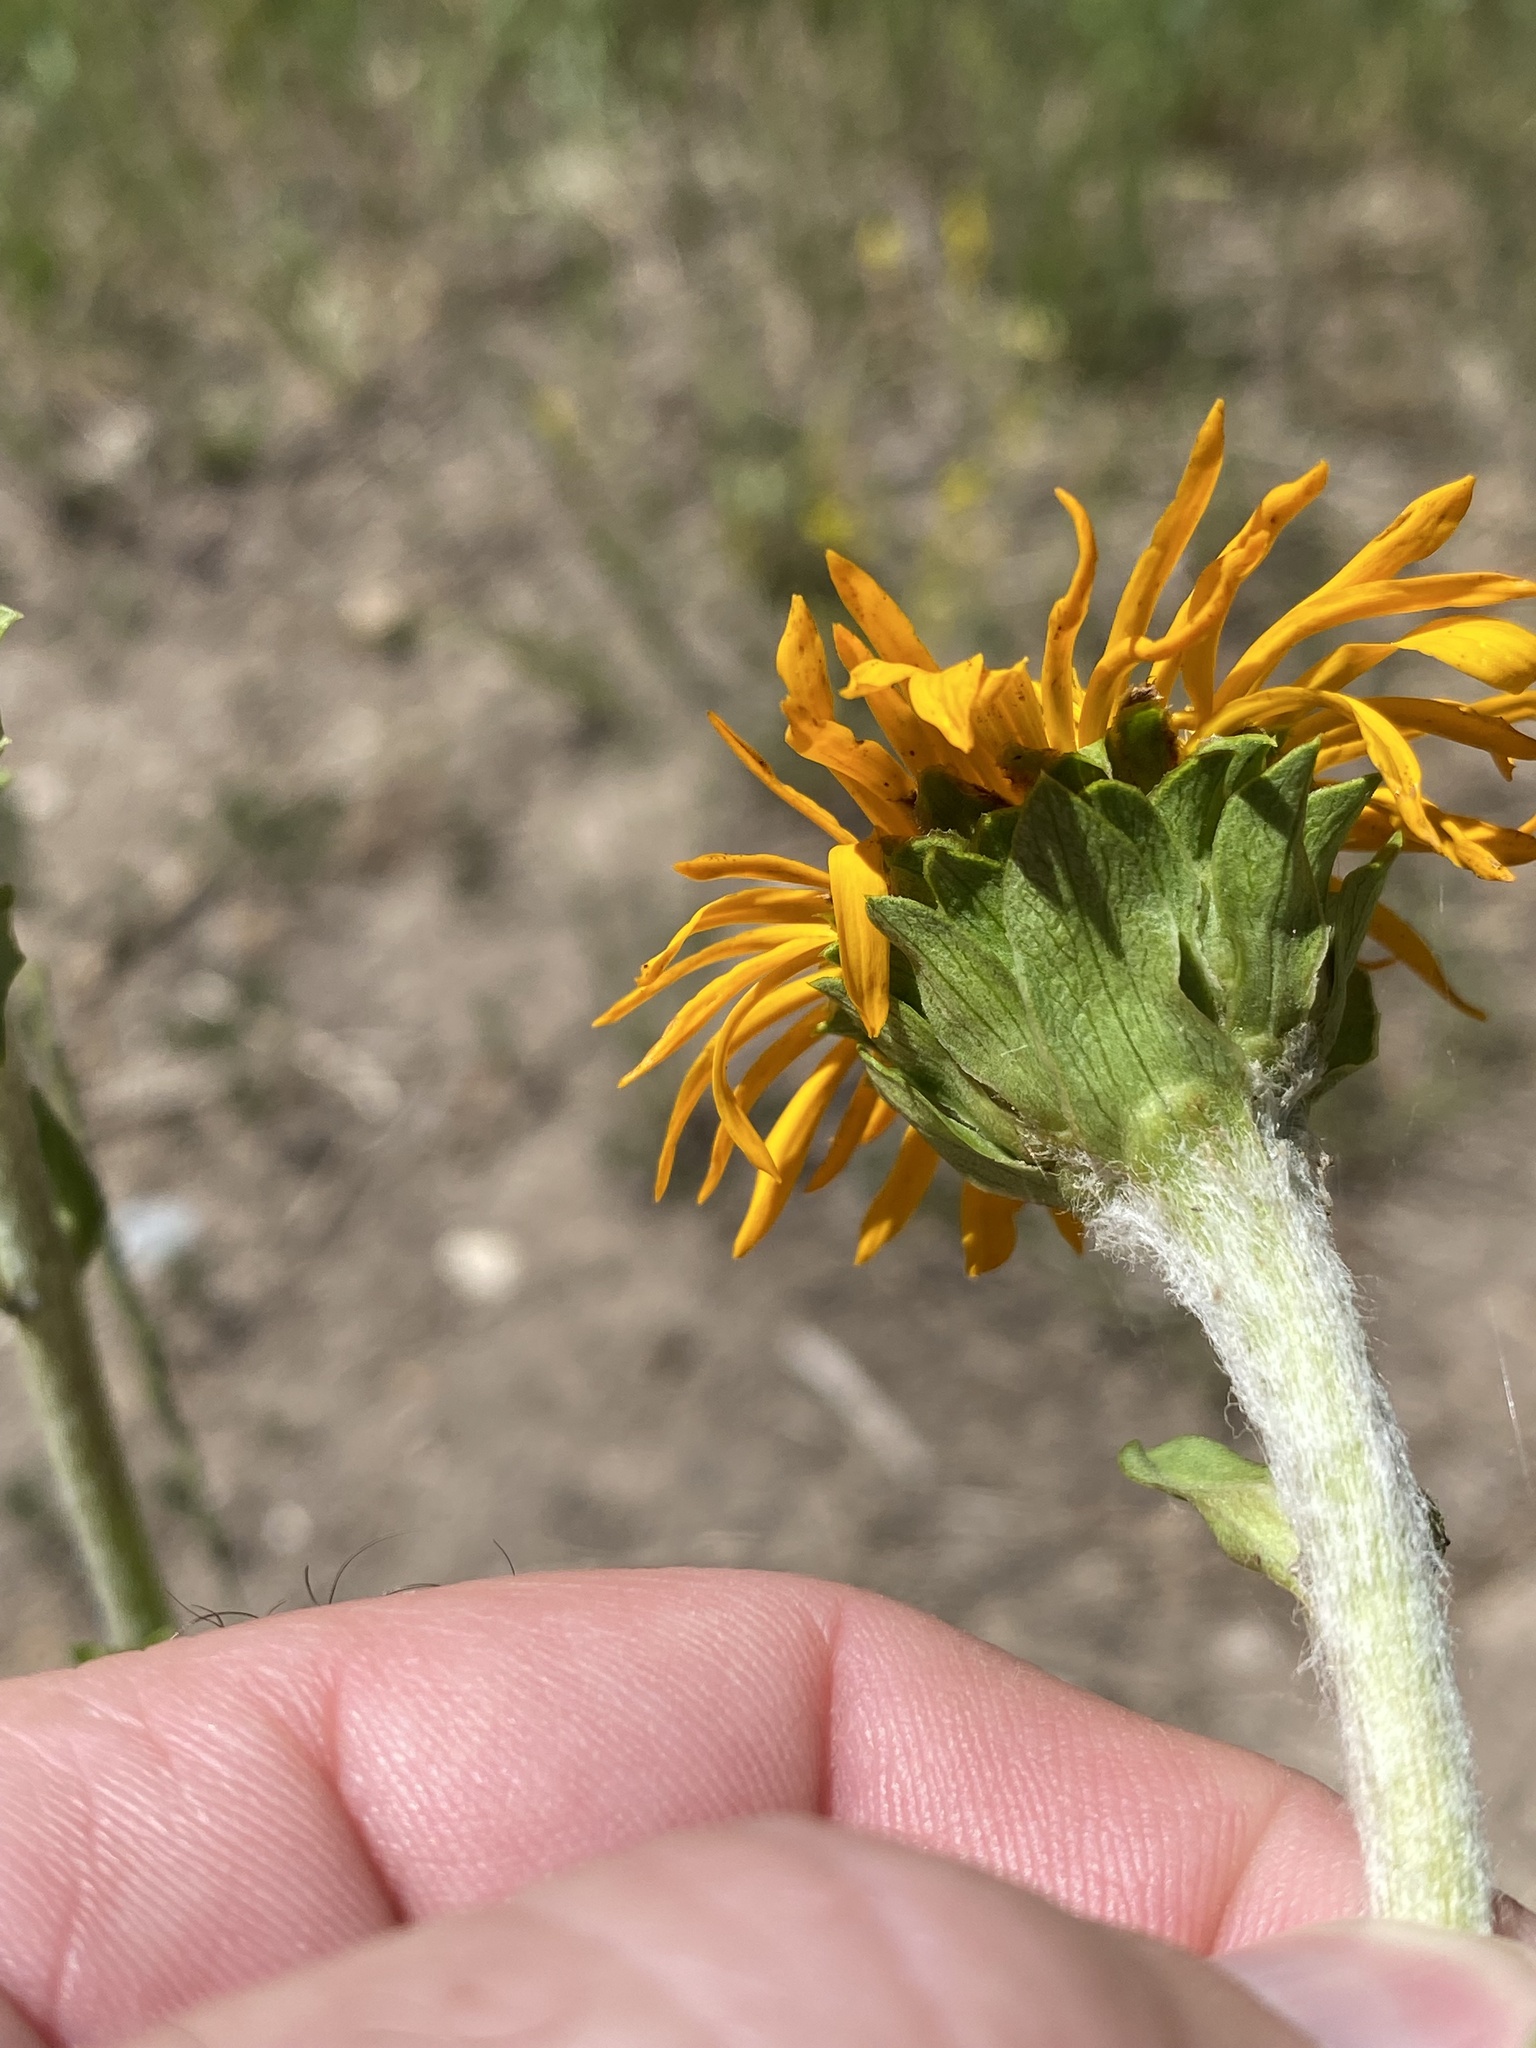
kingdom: Plantae
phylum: Tracheophyta
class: Magnoliopsida
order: Asterales
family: Asteraceae
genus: Pyrrocoma
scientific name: Pyrrocoma crocea
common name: Curly-head goldenweed
